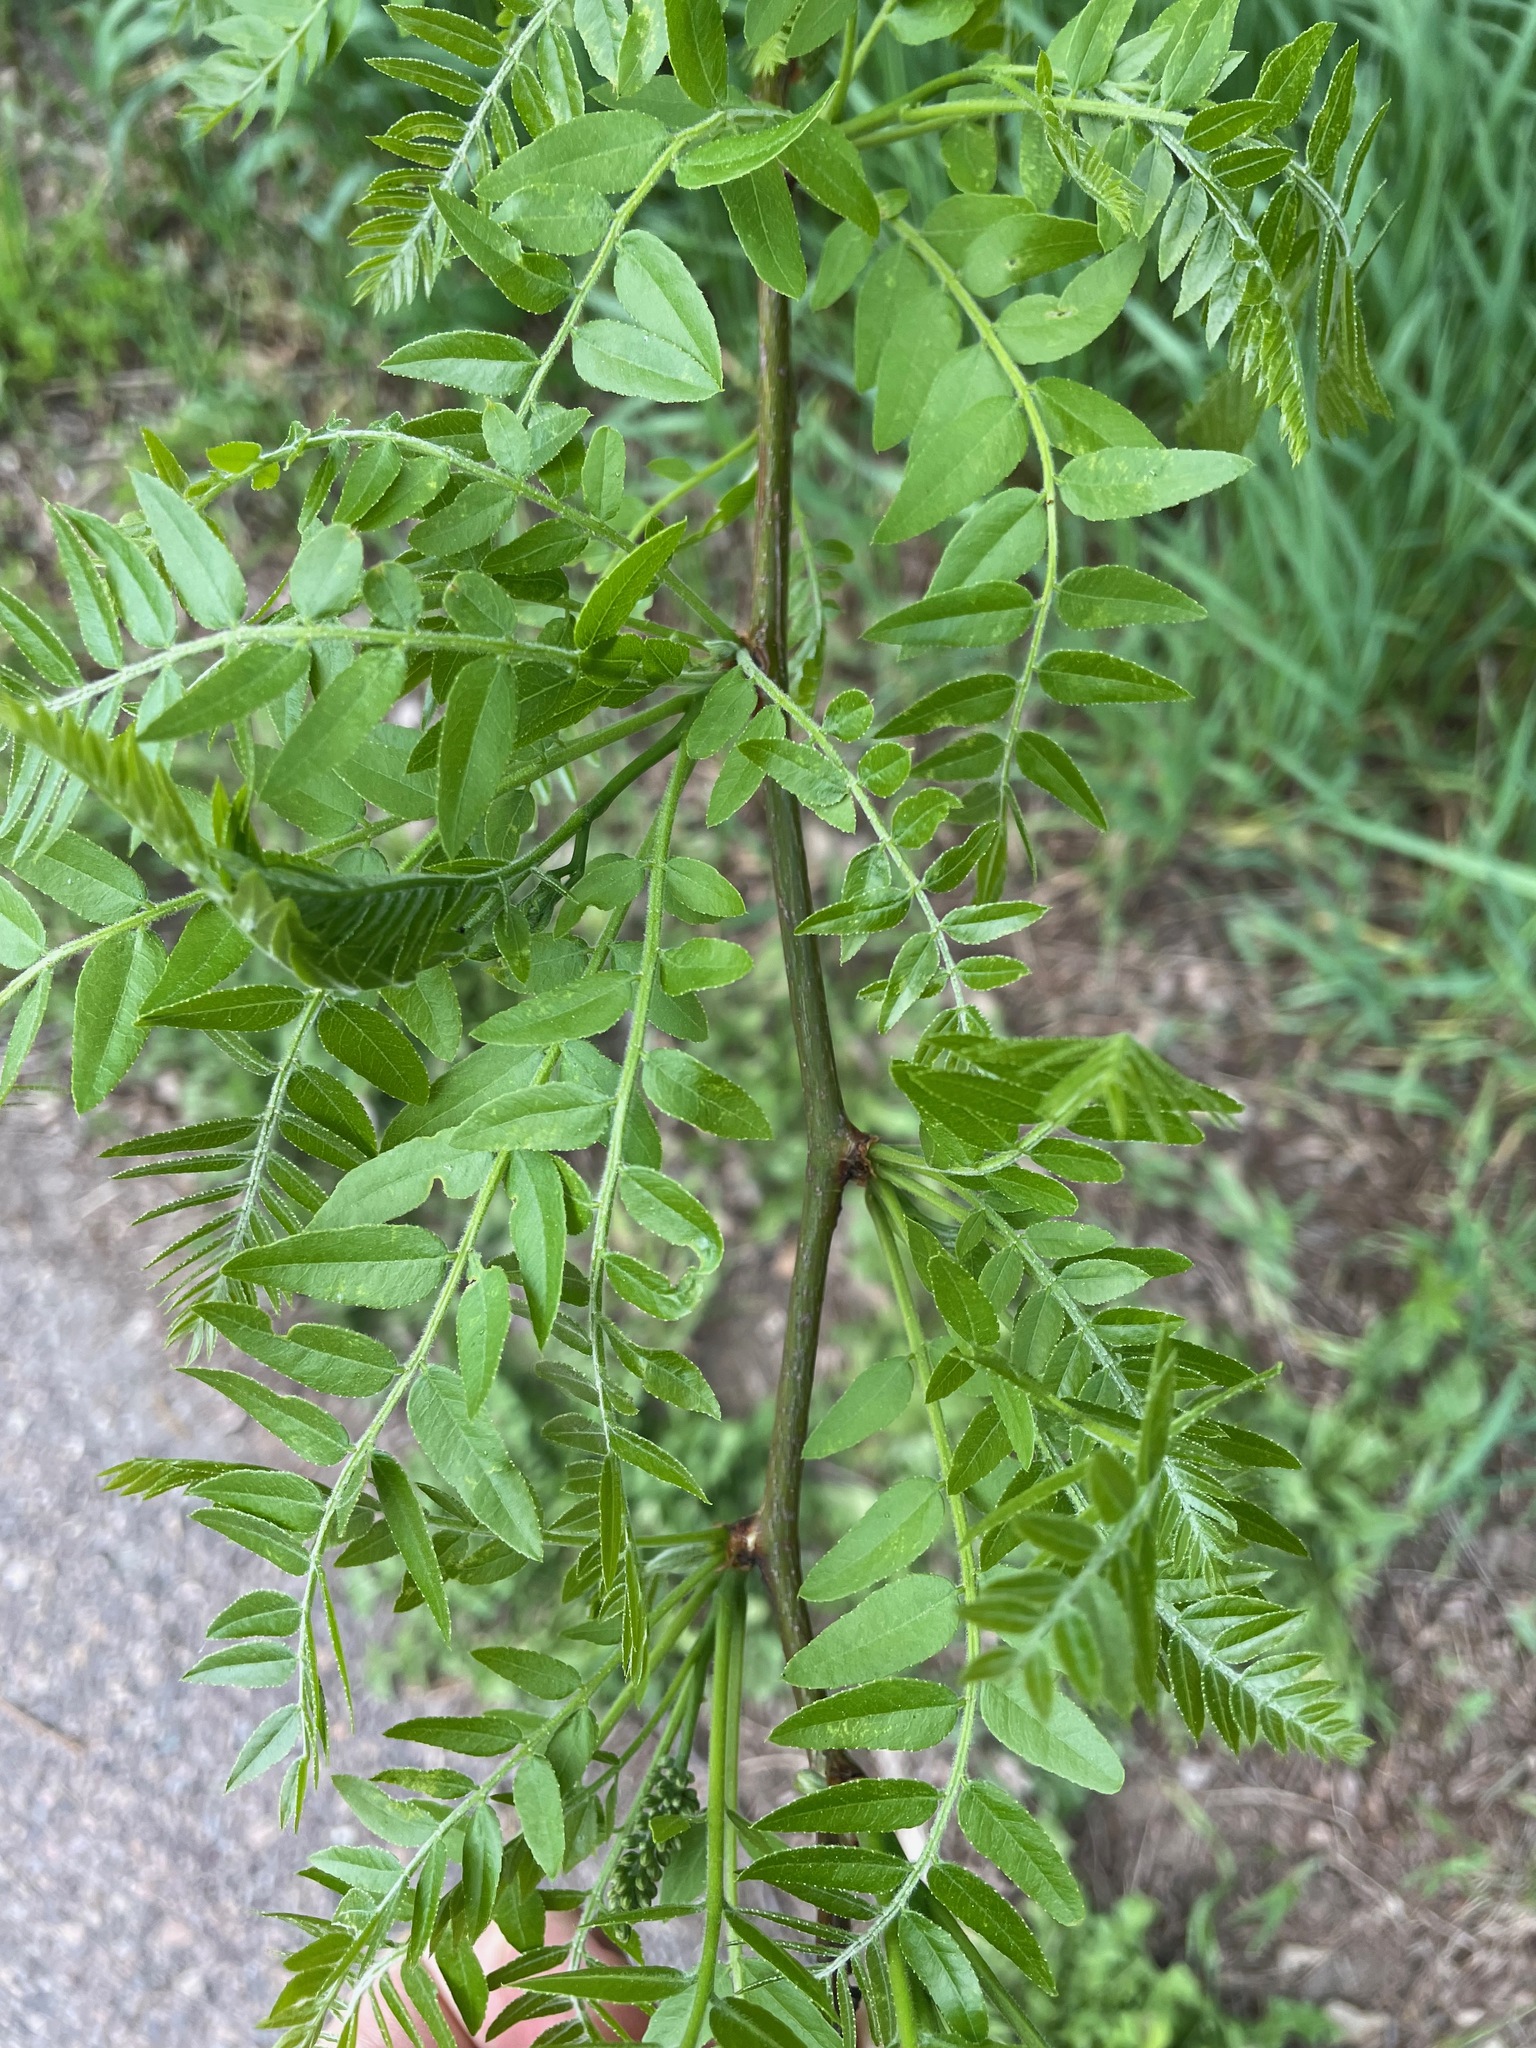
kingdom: Plantae
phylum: Tracheophyta
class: Magnoliopsida
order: Fabales
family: Fabaceae
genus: Gleditsia
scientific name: Gleditsia triacanthos
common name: Common honeylocust
